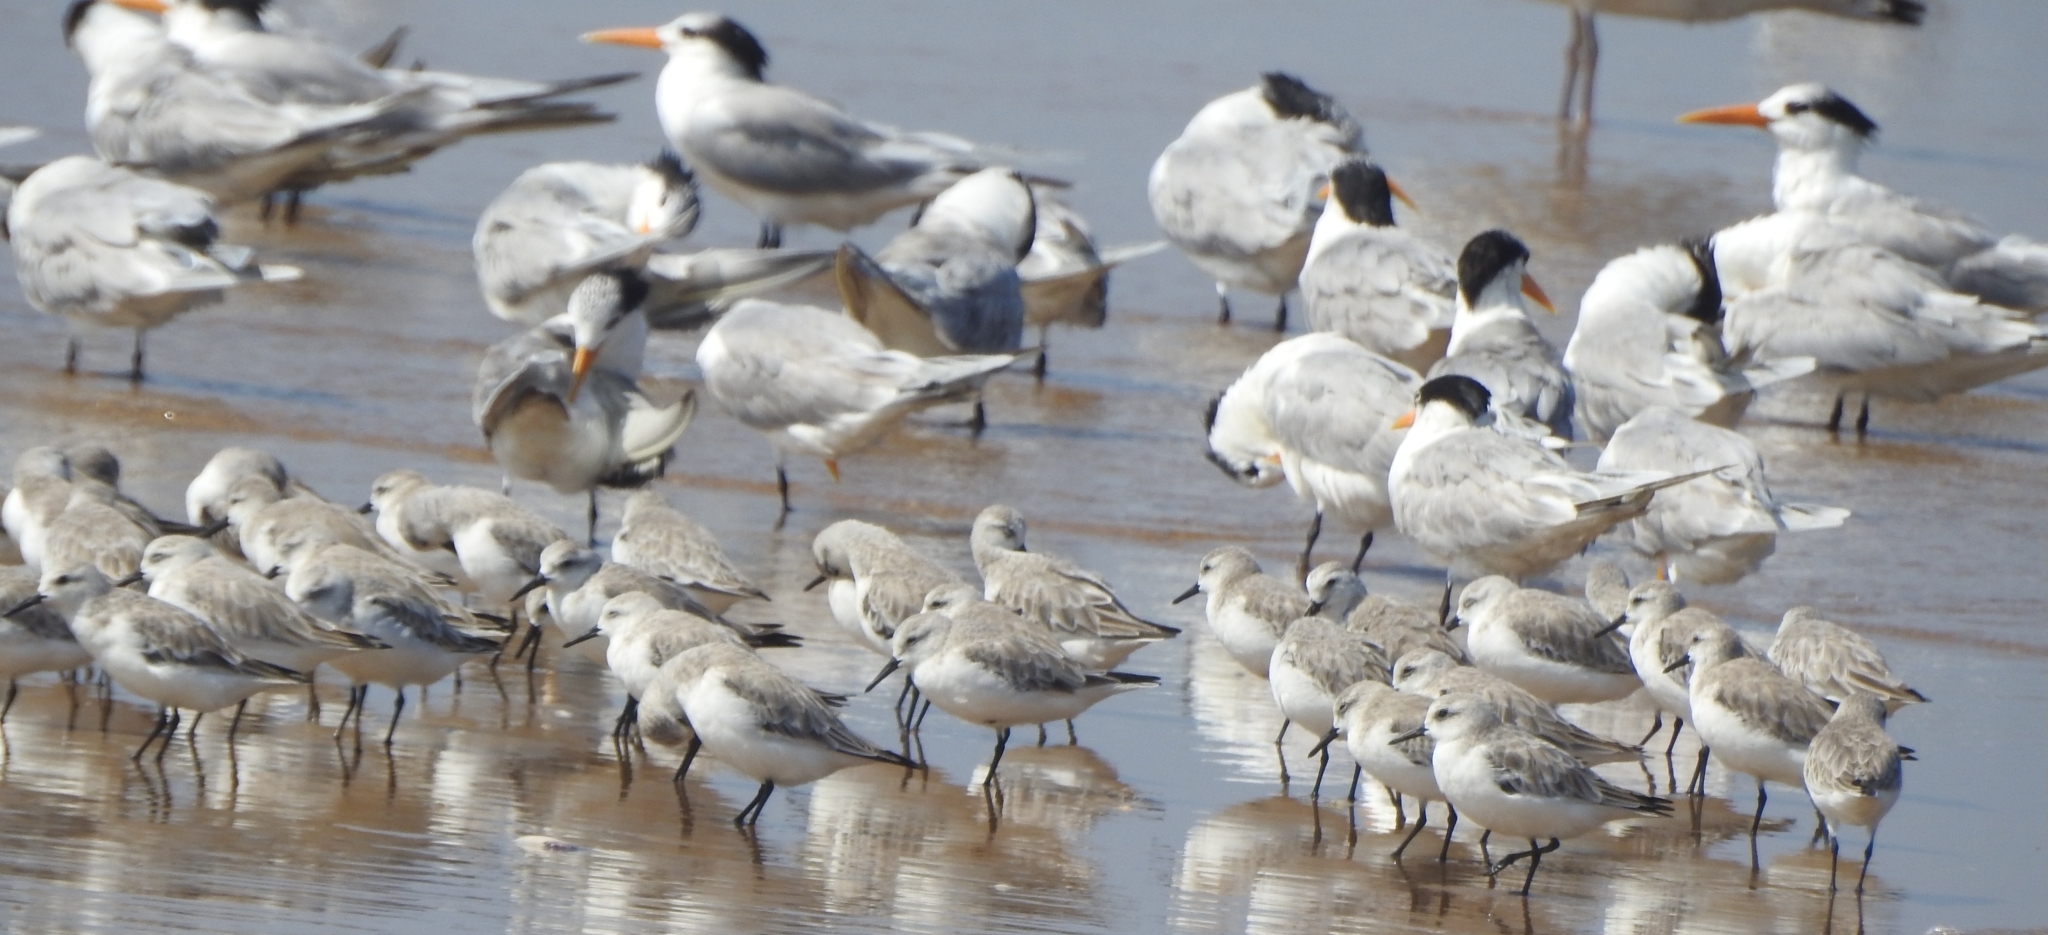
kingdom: Animalia
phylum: Chordata
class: Aves
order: Charadriiformes
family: Laridae
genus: Thalasseus
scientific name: Thalasseus bengalensis
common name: Lesser crested tern
